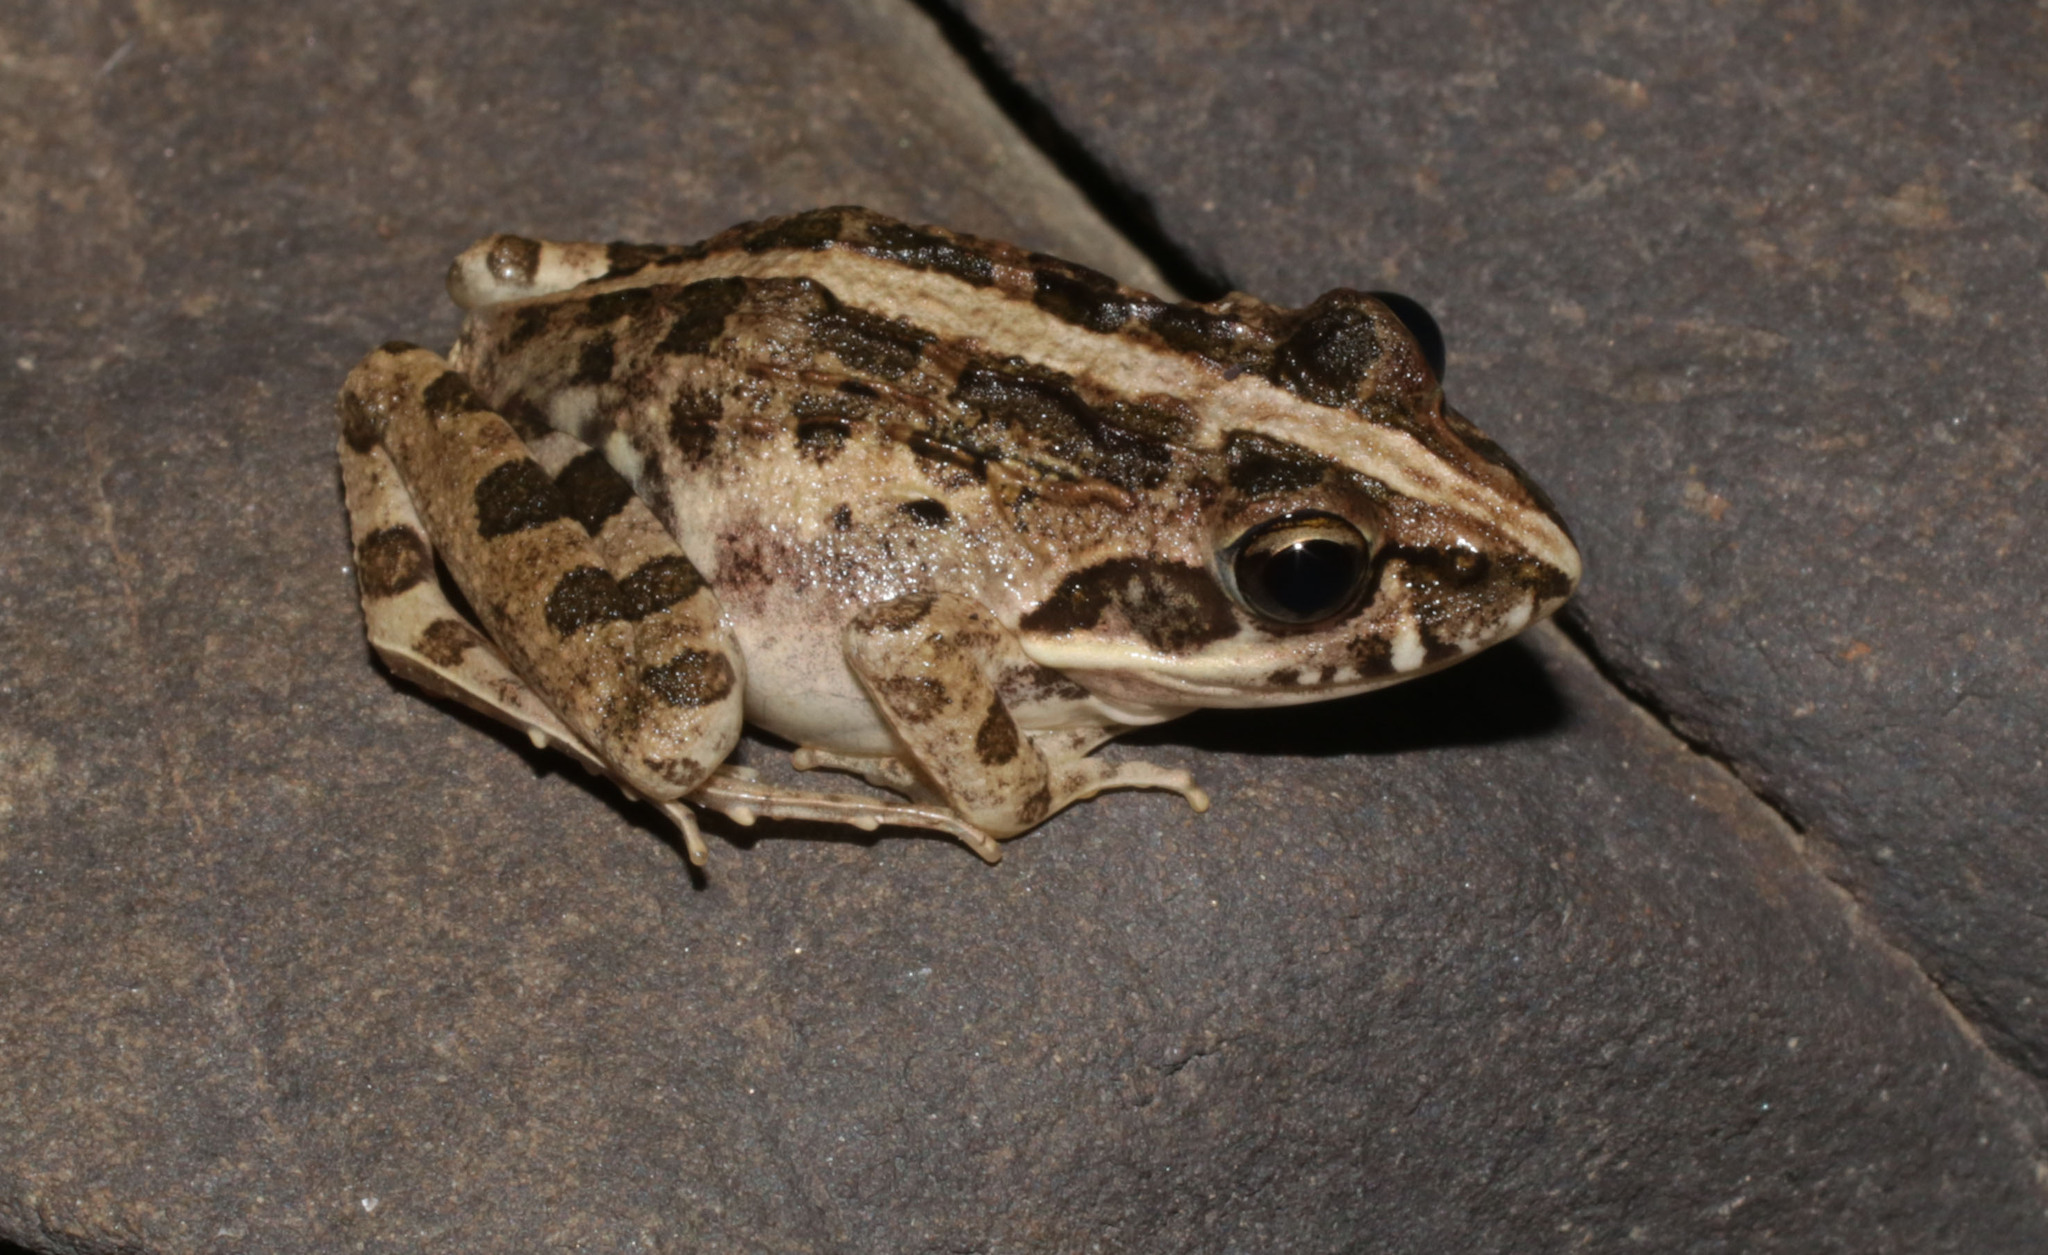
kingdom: Animalia
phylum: Chordata
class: Amphibia
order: Anura
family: Pyxicephalidae
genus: Strongylopus
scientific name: Strongylopus grayii
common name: Gray's stream frog
